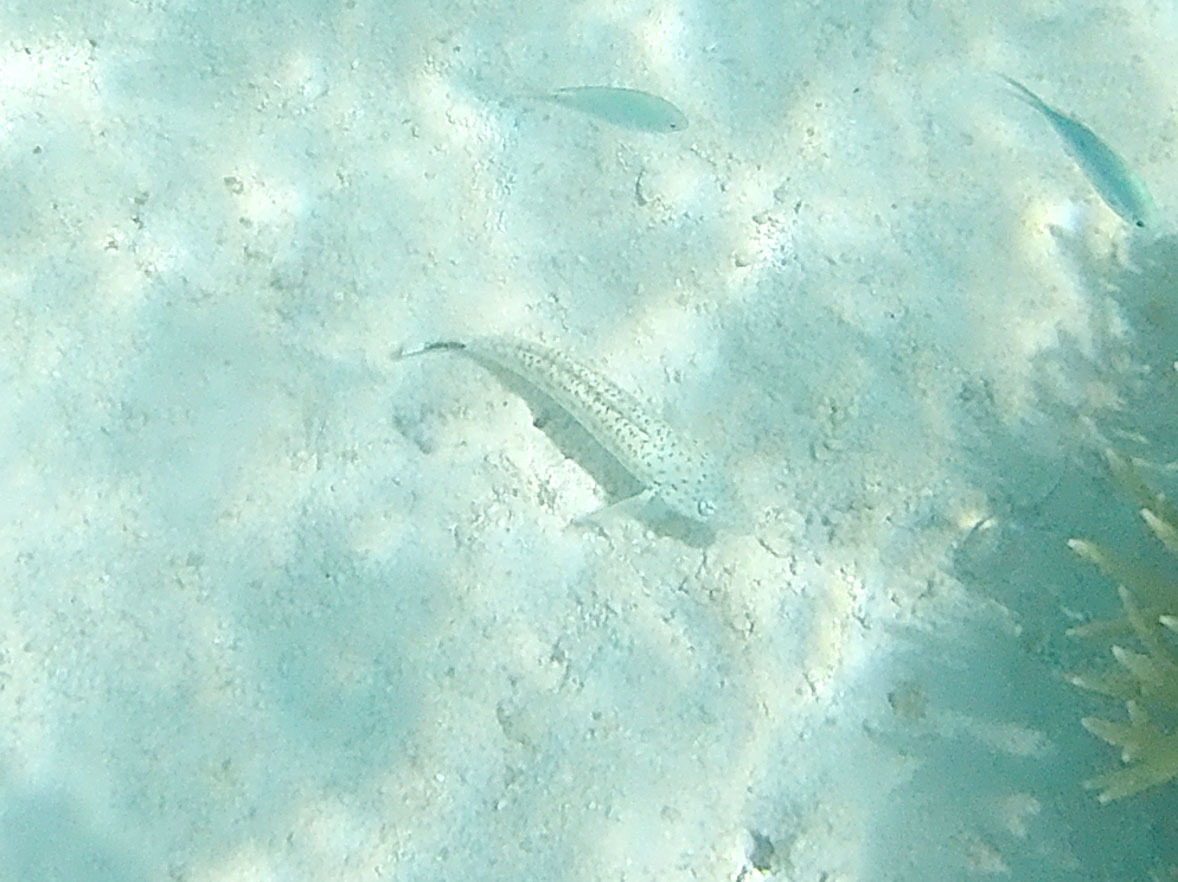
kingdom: Animalia
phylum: Chordata
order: Perciformes
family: Pinguipedidae
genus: Parapercis
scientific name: Parapercis queenslandica
